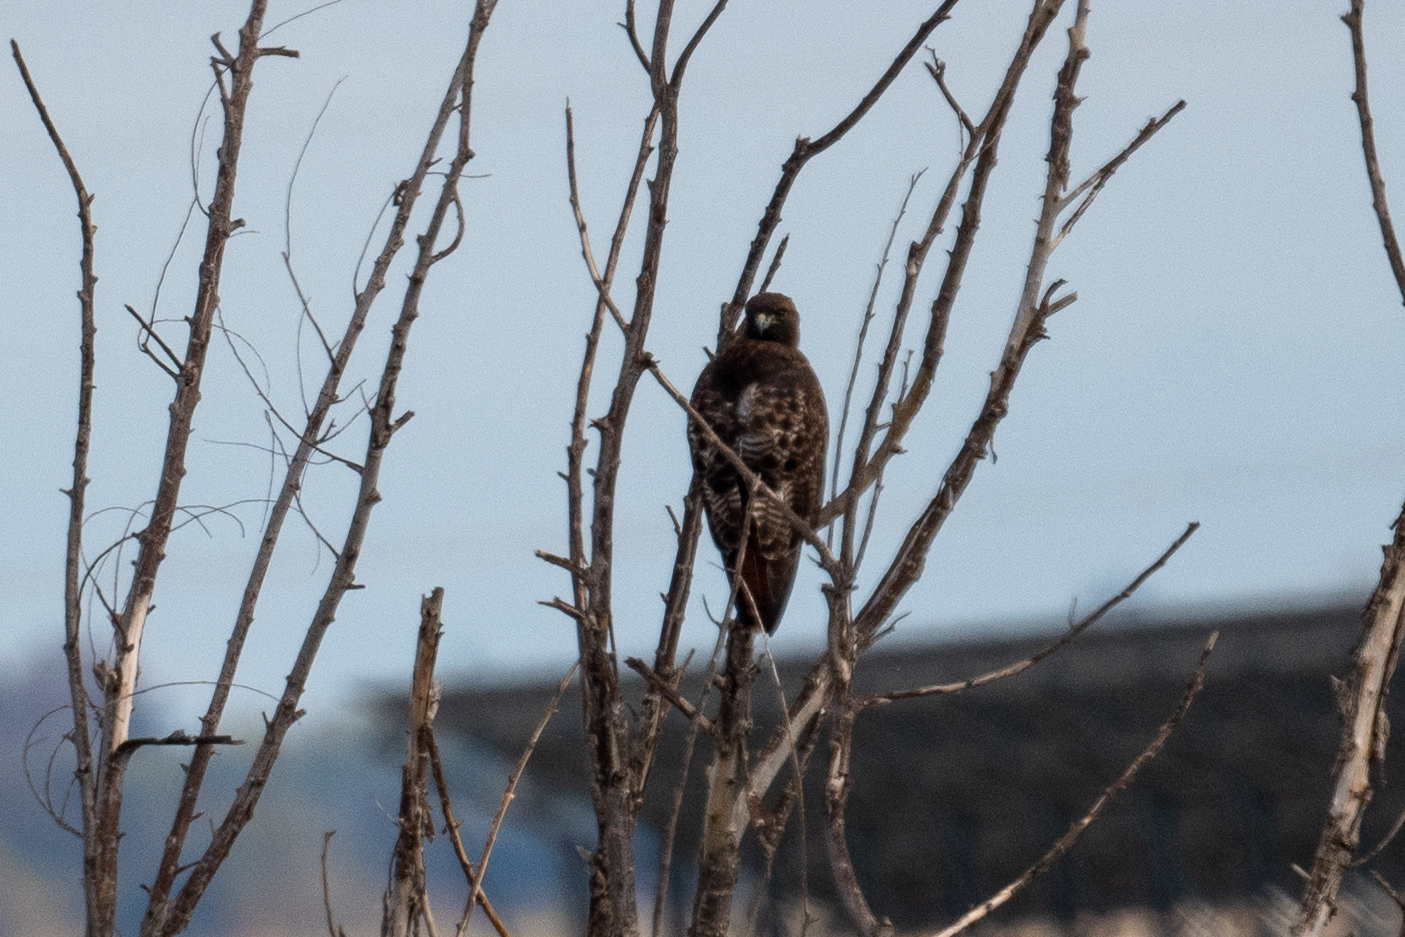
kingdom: Animalia
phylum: Chordata
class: Aves
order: Accipitriformes
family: Accipitridae
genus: Buteo
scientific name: Buteo jamaicensis
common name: Red-tailed hawk
